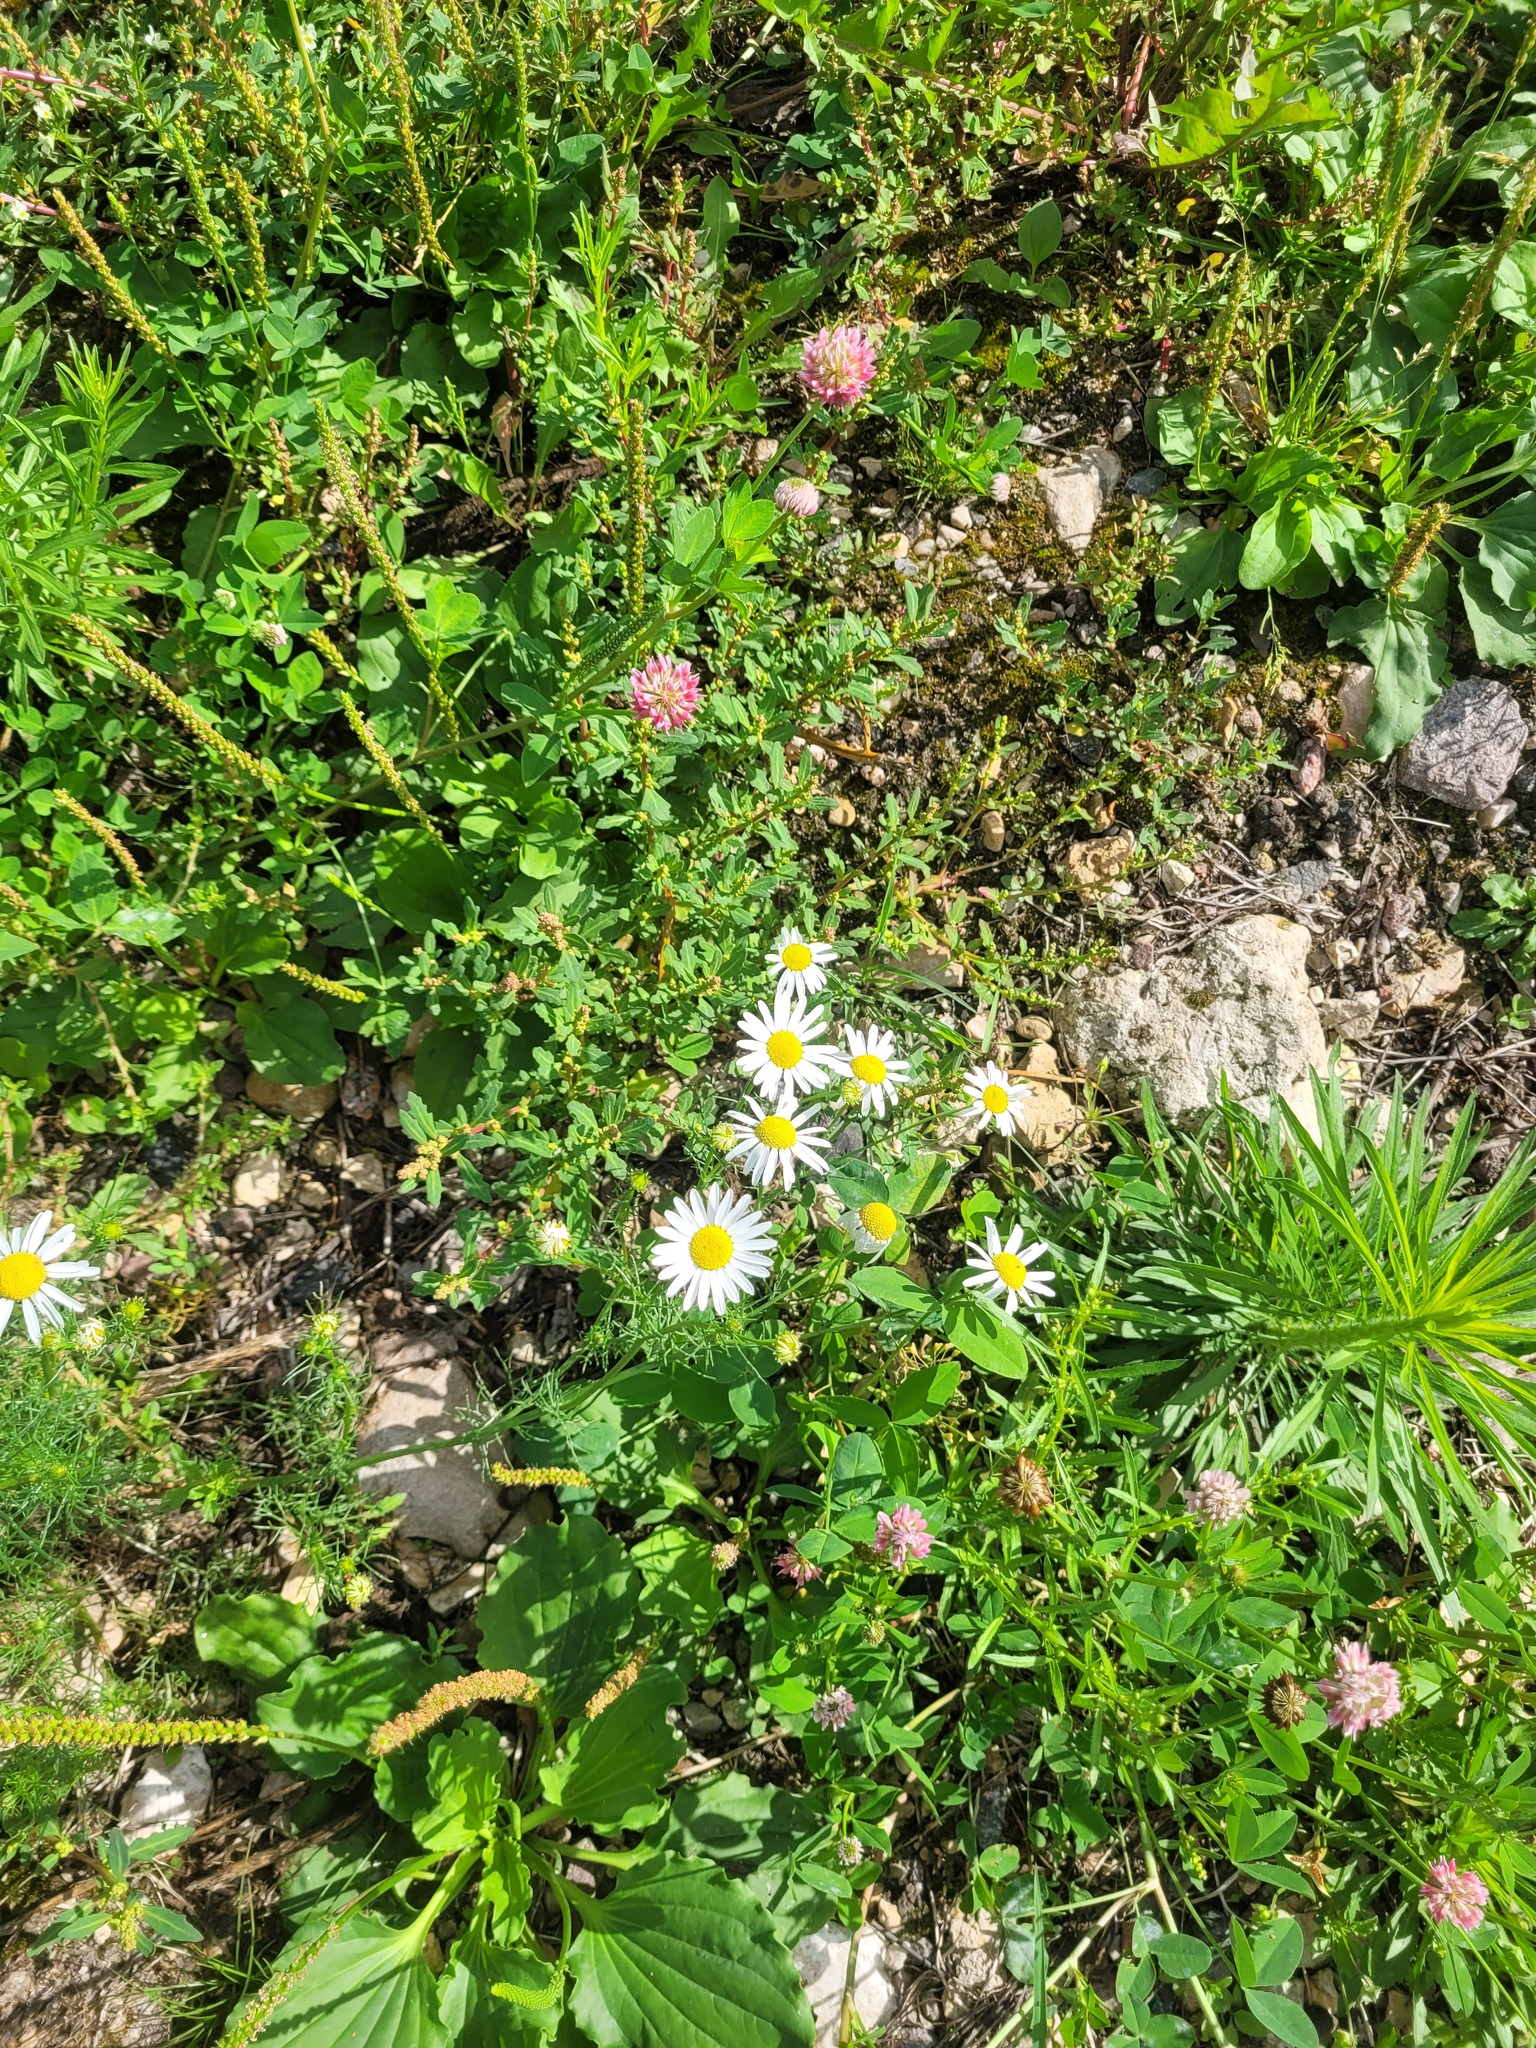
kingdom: Plantae
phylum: Tracheophyta
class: Magnoliopsida
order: Asterales
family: Asteraceae
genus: Tripleurospermum
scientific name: Tripleurospermum inodorum
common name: Scentless mayweed
